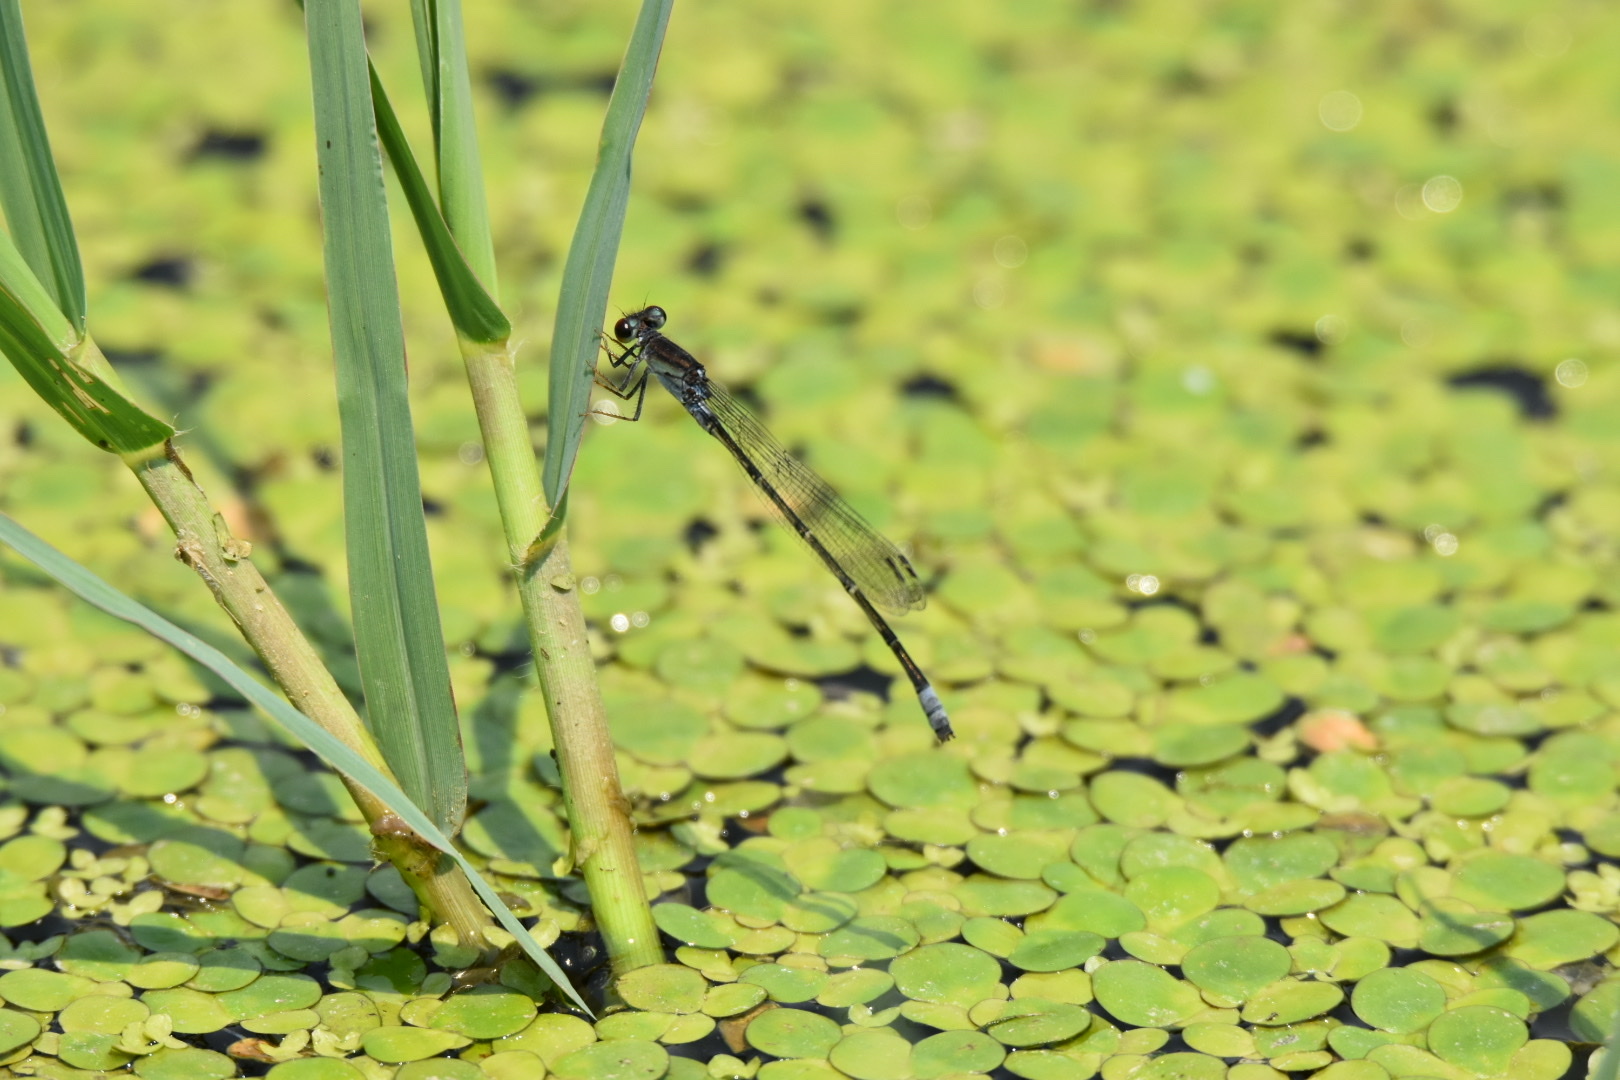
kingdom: Animalia
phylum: Arthropoda
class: Insecta
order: Odonata
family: Coenagrionidae
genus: Pseudagrion
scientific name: Pseudagrion sublacteum
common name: Cherry-eye sprite
